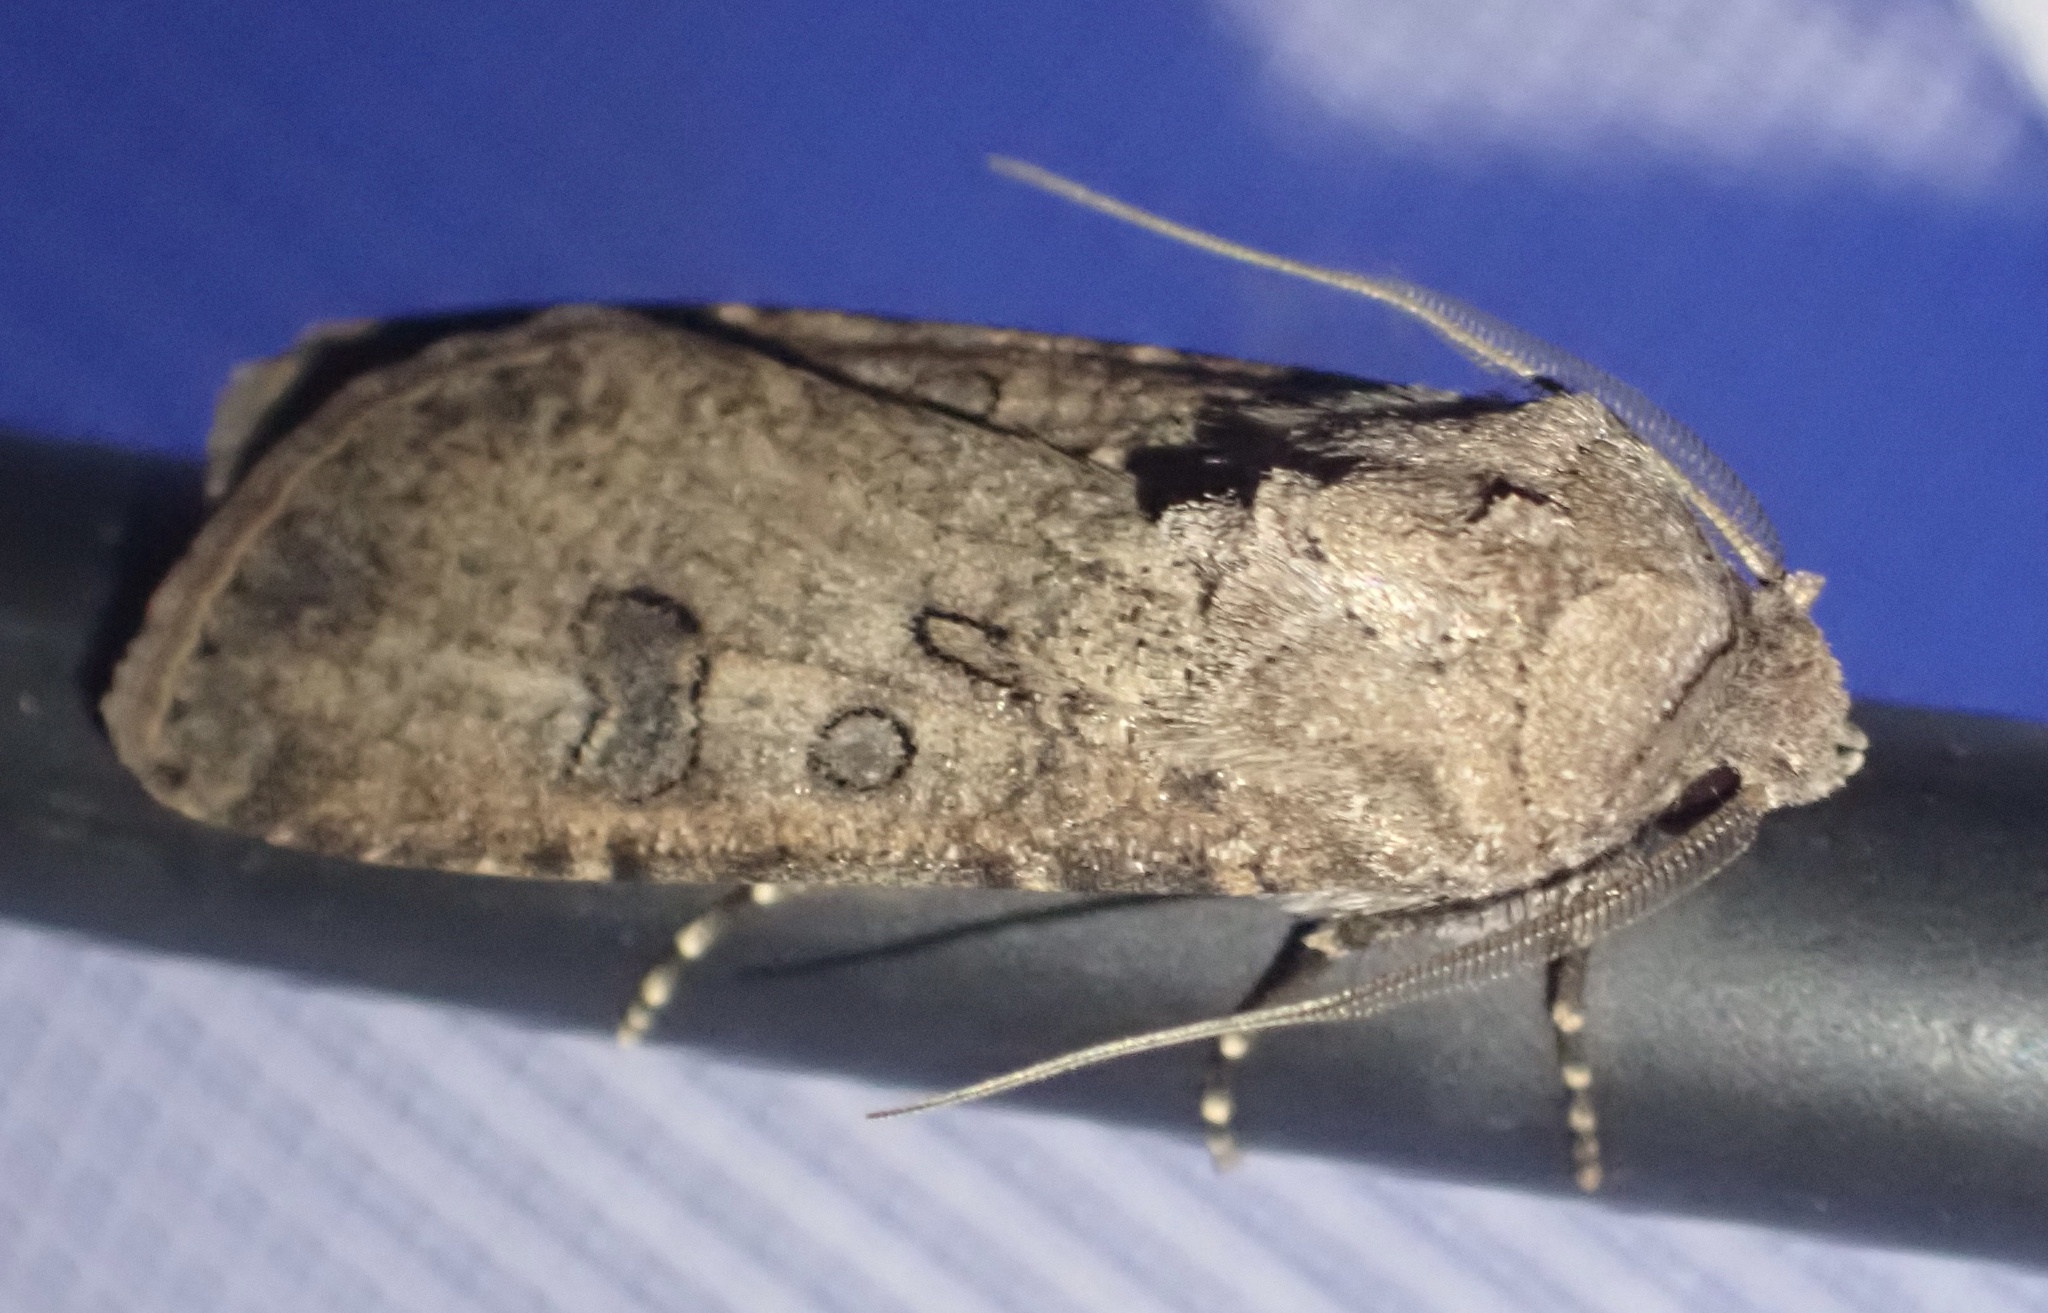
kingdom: Animalia
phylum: Arthropoda
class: Insecta
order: Lepidoptera
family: Noctuidae
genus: Agrotis
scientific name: Agrotis segetum
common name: Turnip moth
